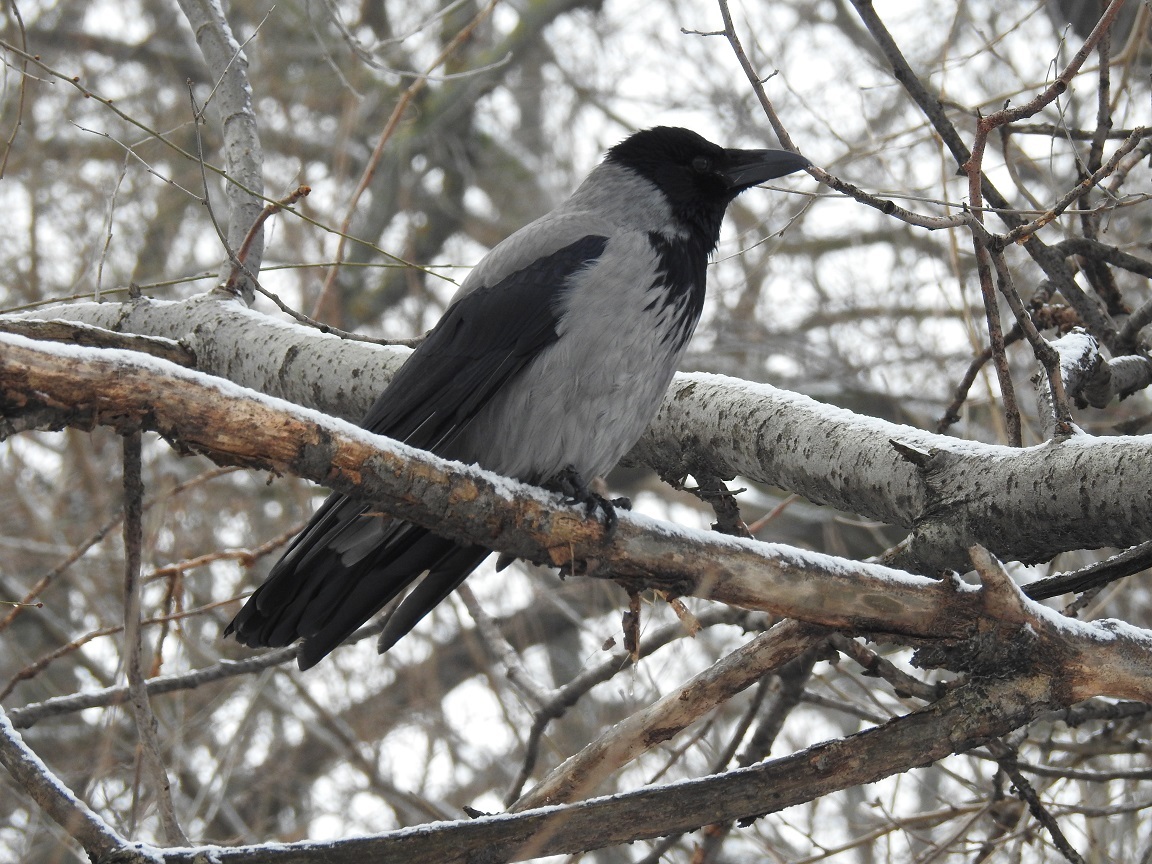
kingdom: Animalia
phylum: Chordata
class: Aves
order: Passeriformes
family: Corvidae
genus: Corvus
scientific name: Corvus cornix
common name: Hooded crow
